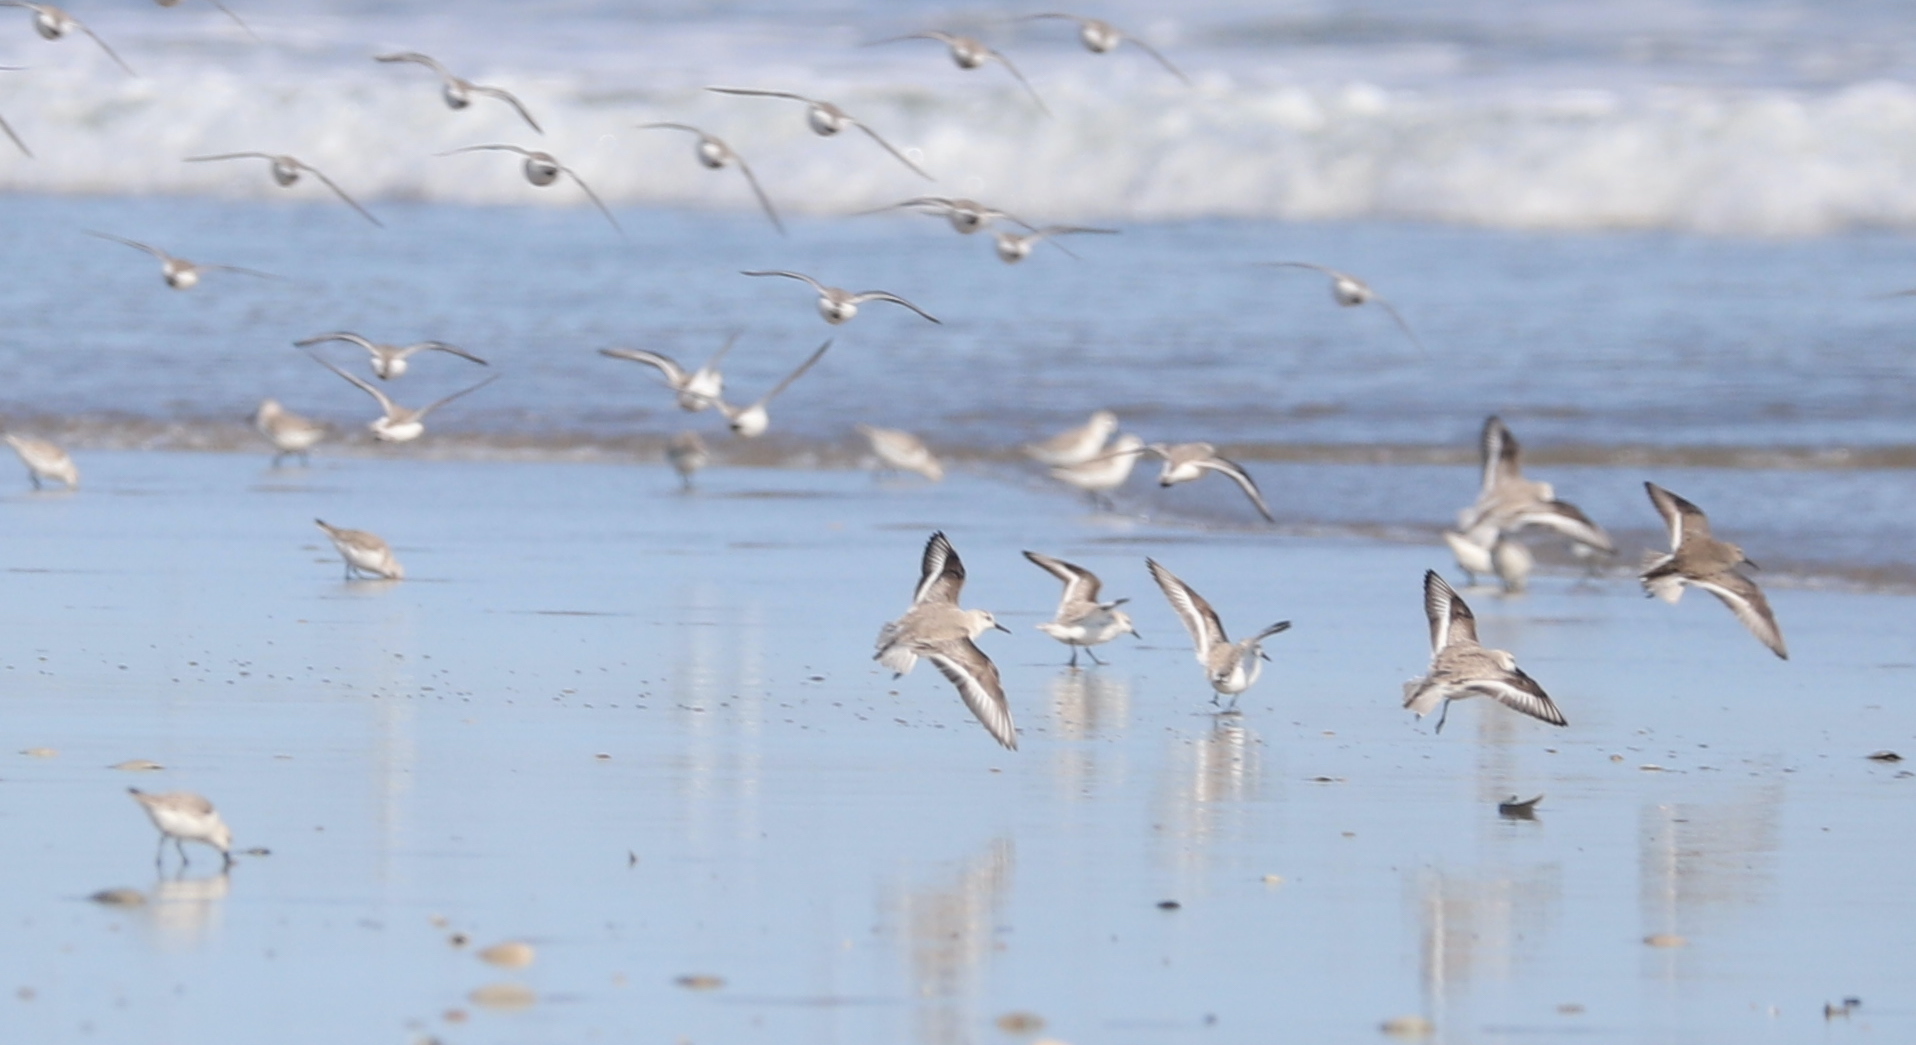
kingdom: Animalia
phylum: Chordata
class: Aves
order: Charadriiformes
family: Scolopacidae
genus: Calidris
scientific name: Calidris alba
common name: Sanderling
